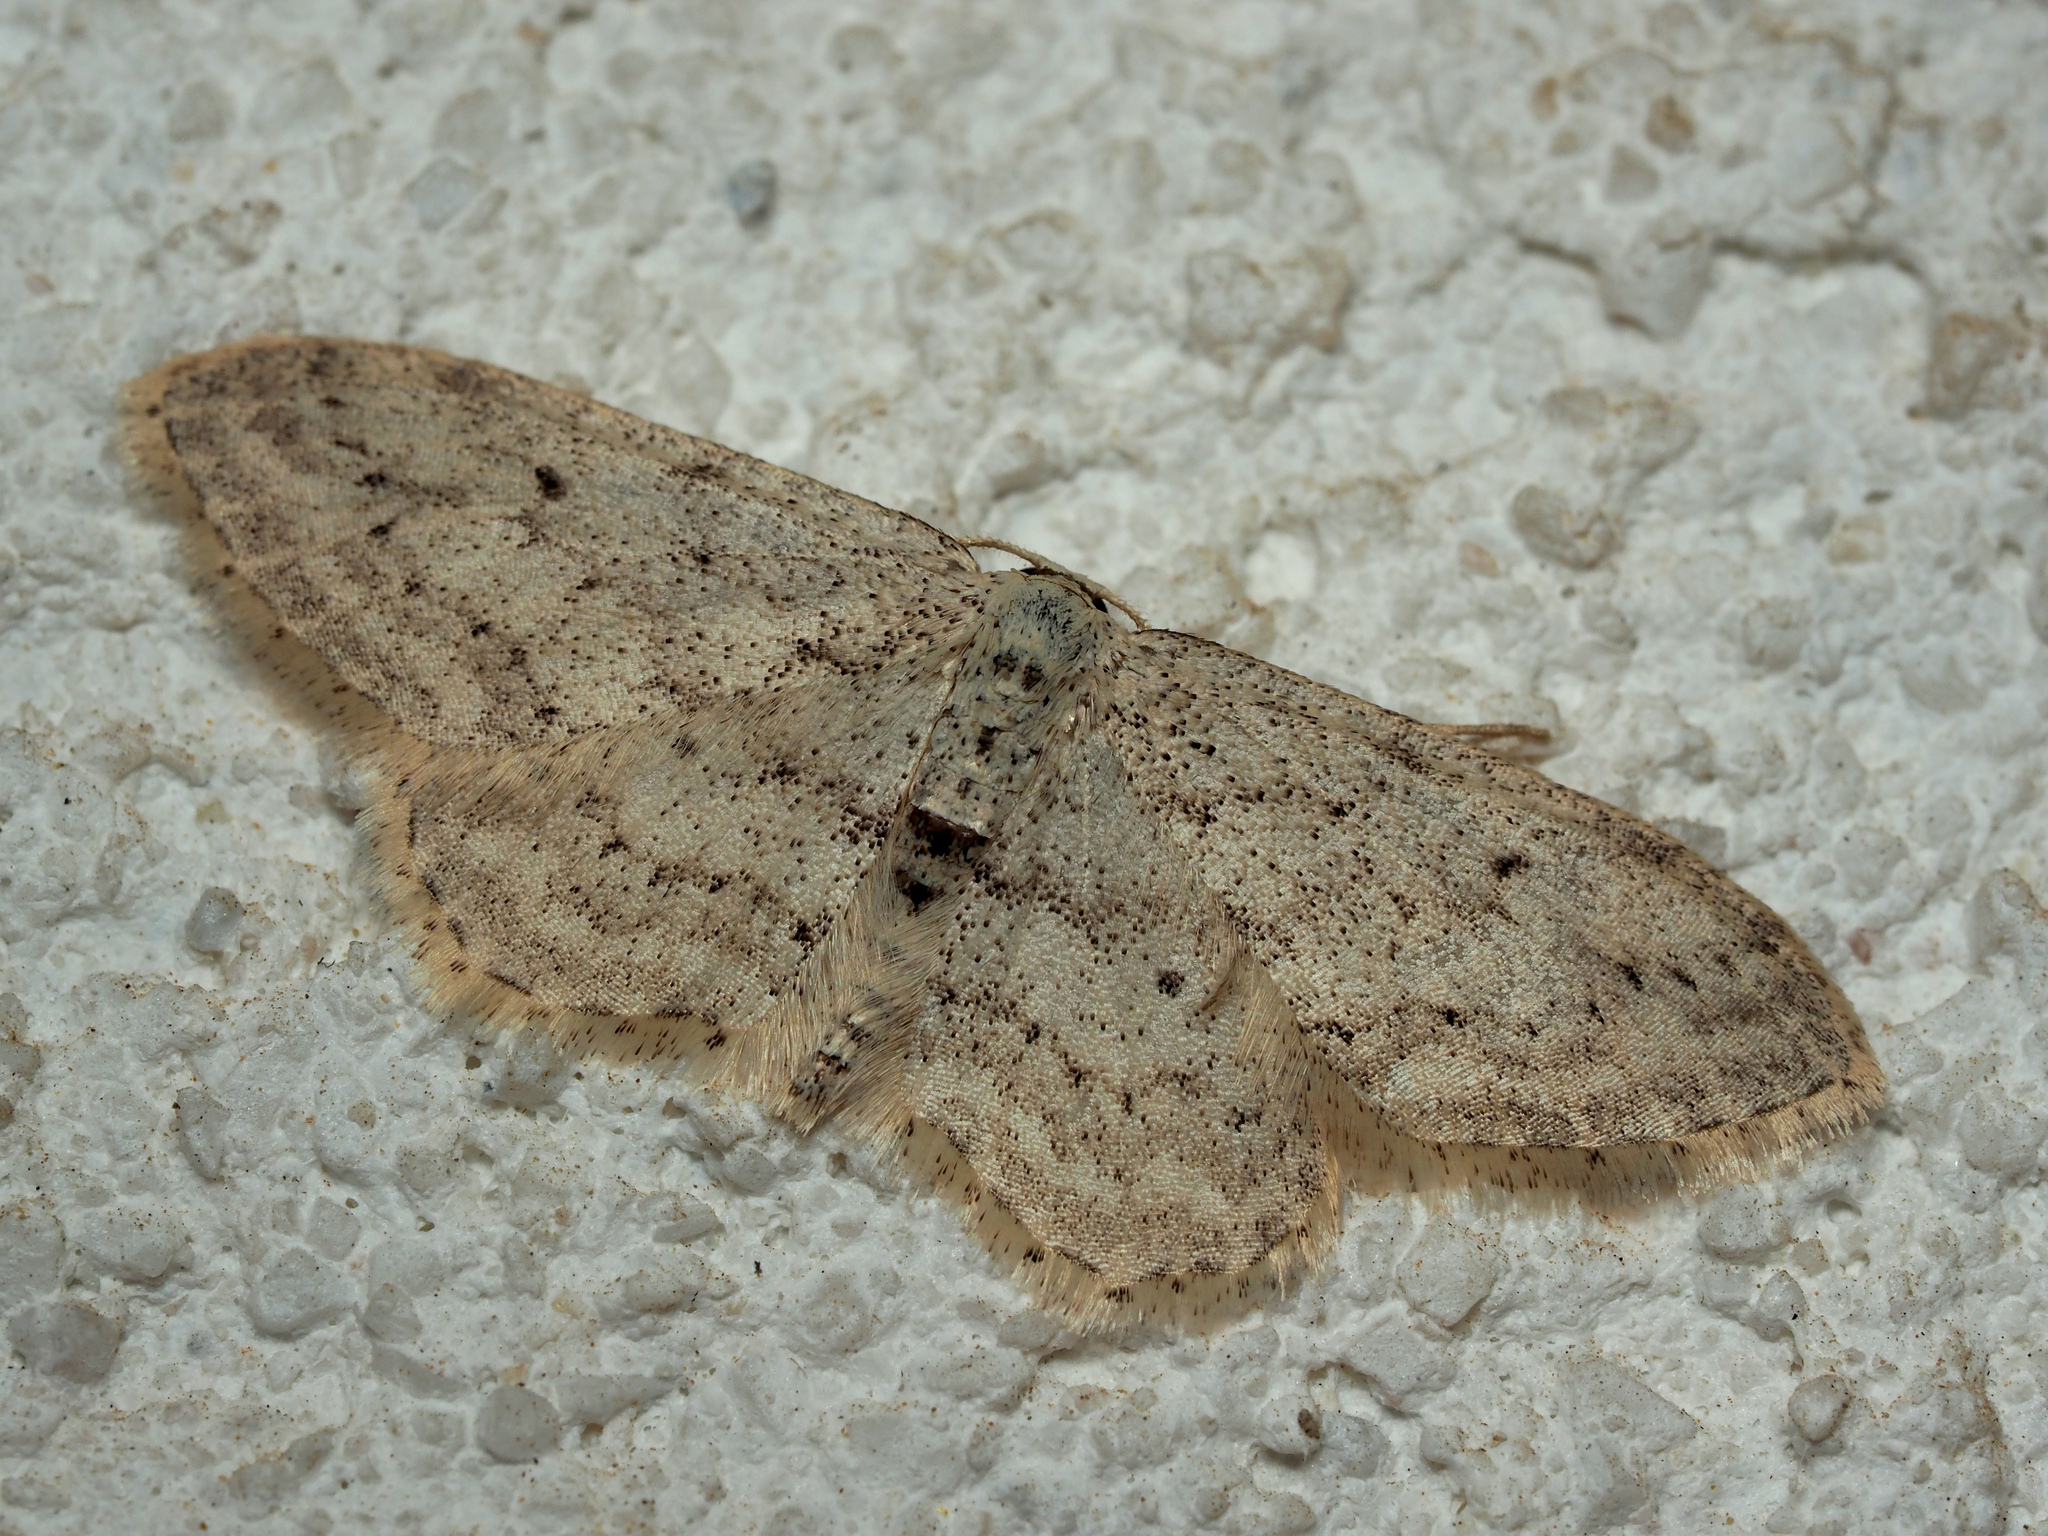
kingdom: Animalia
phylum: Arthropoda
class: Insecta
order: Lepidoptera
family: Geometridae
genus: Idaea
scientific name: Idaea seriata
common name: Small dusty wave
